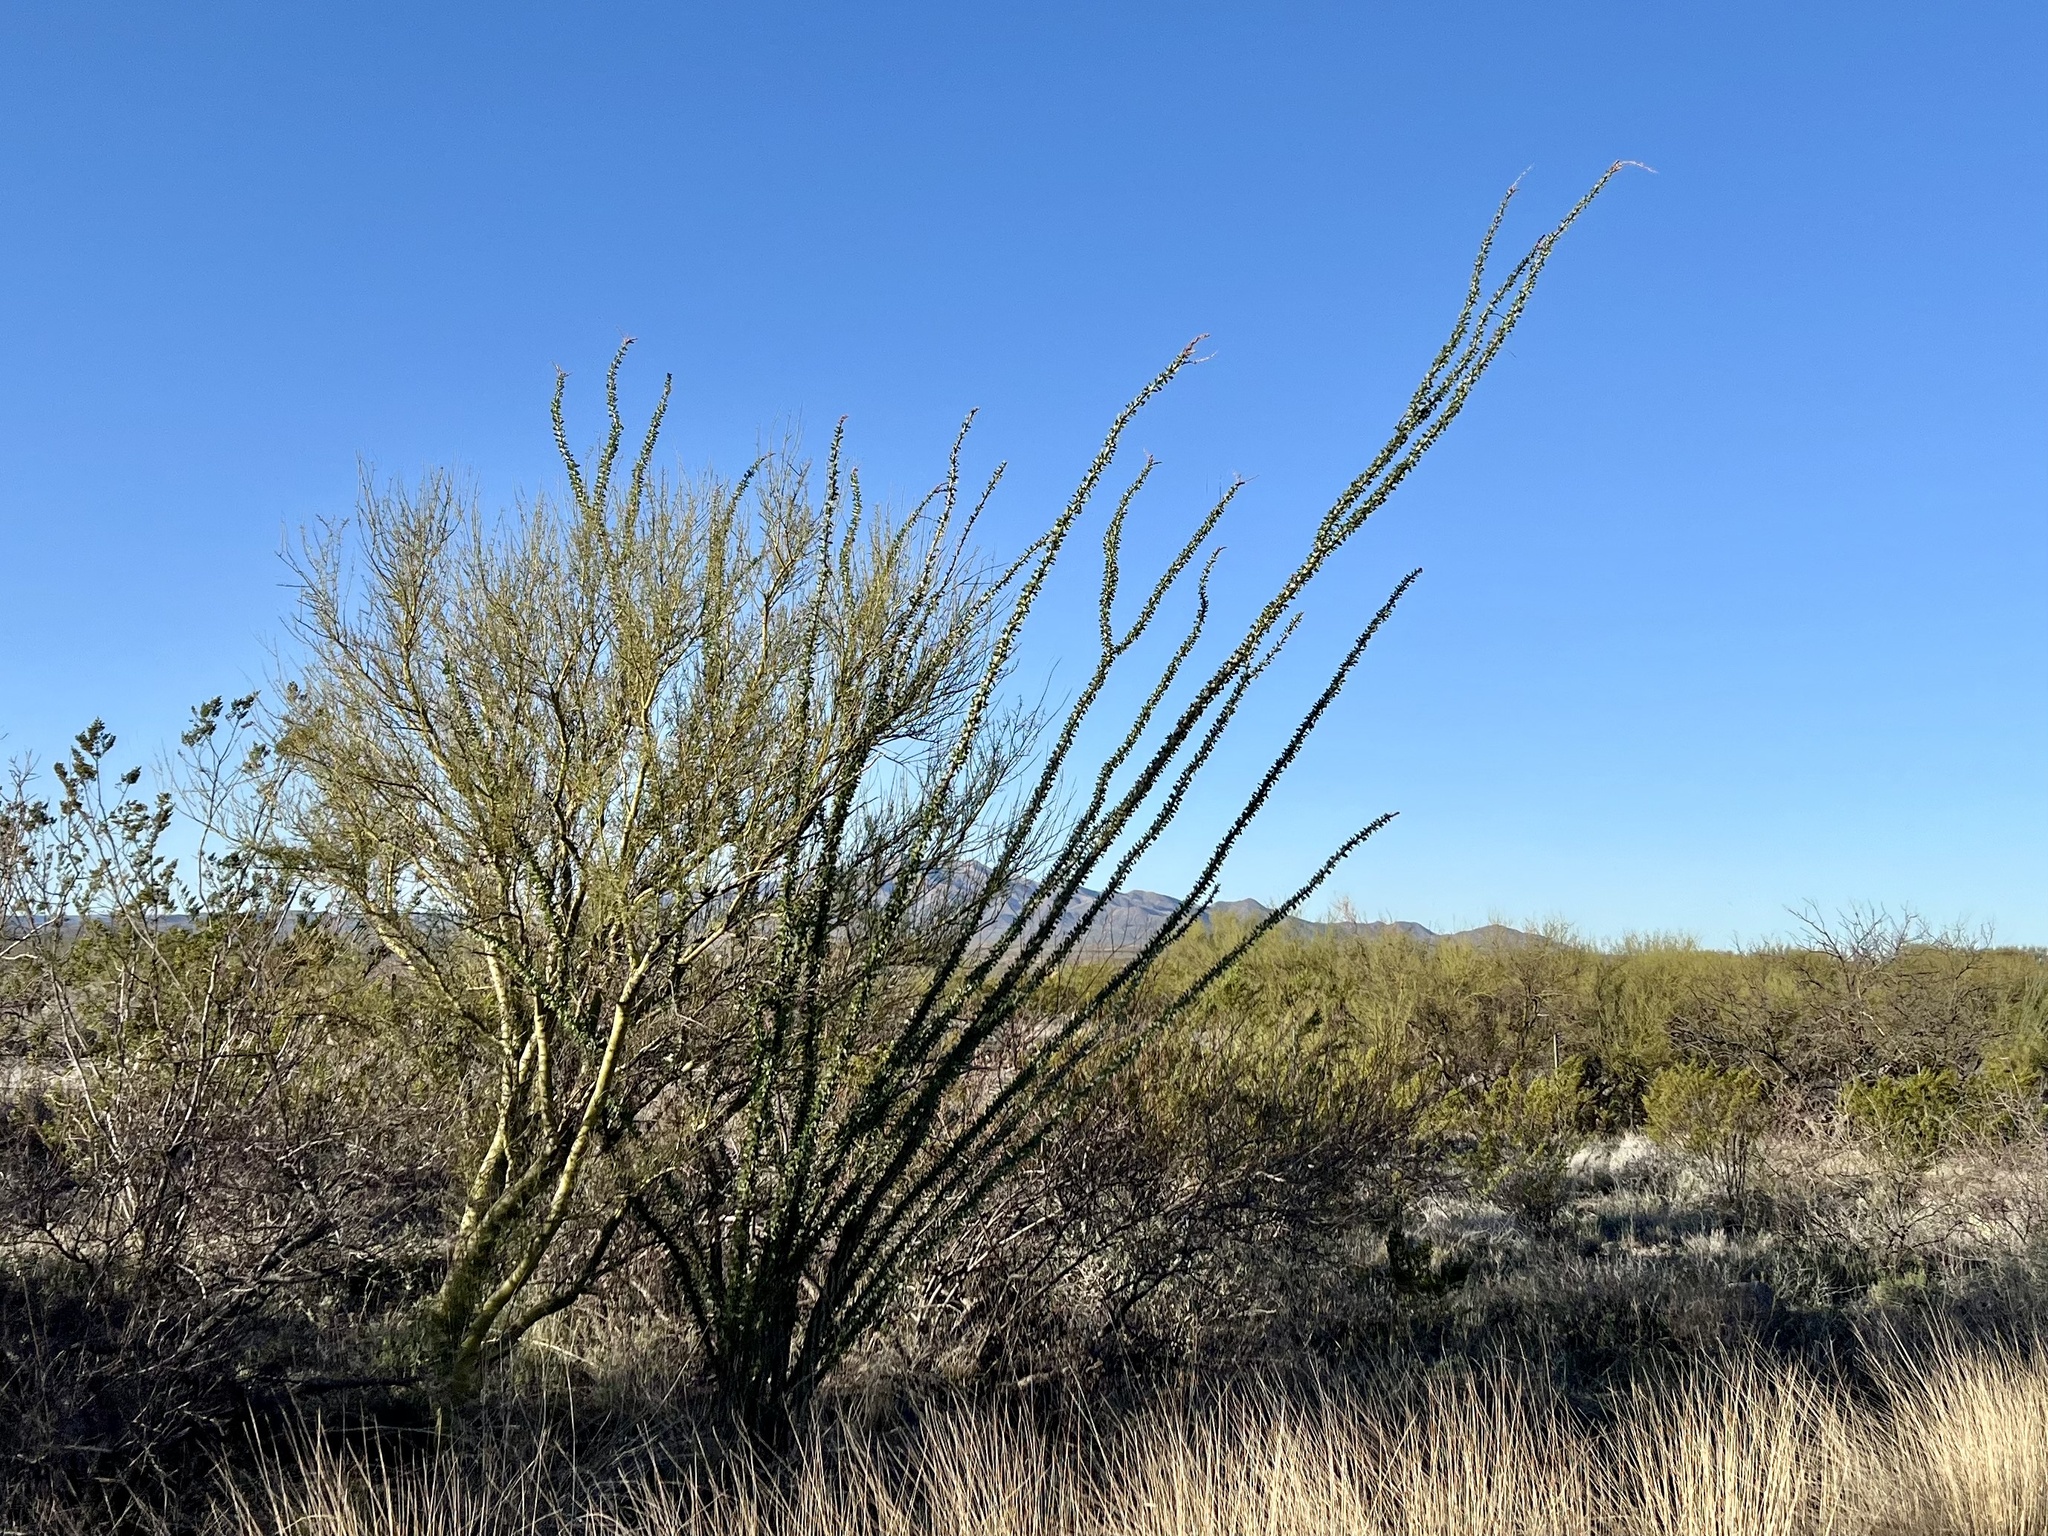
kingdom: Plantae
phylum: Tracheophyta
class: Magnoliopsida
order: Ericales
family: Fouquieriaceae
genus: Fouquieria
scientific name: Fouquieria splendens
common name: Vine-cactus
